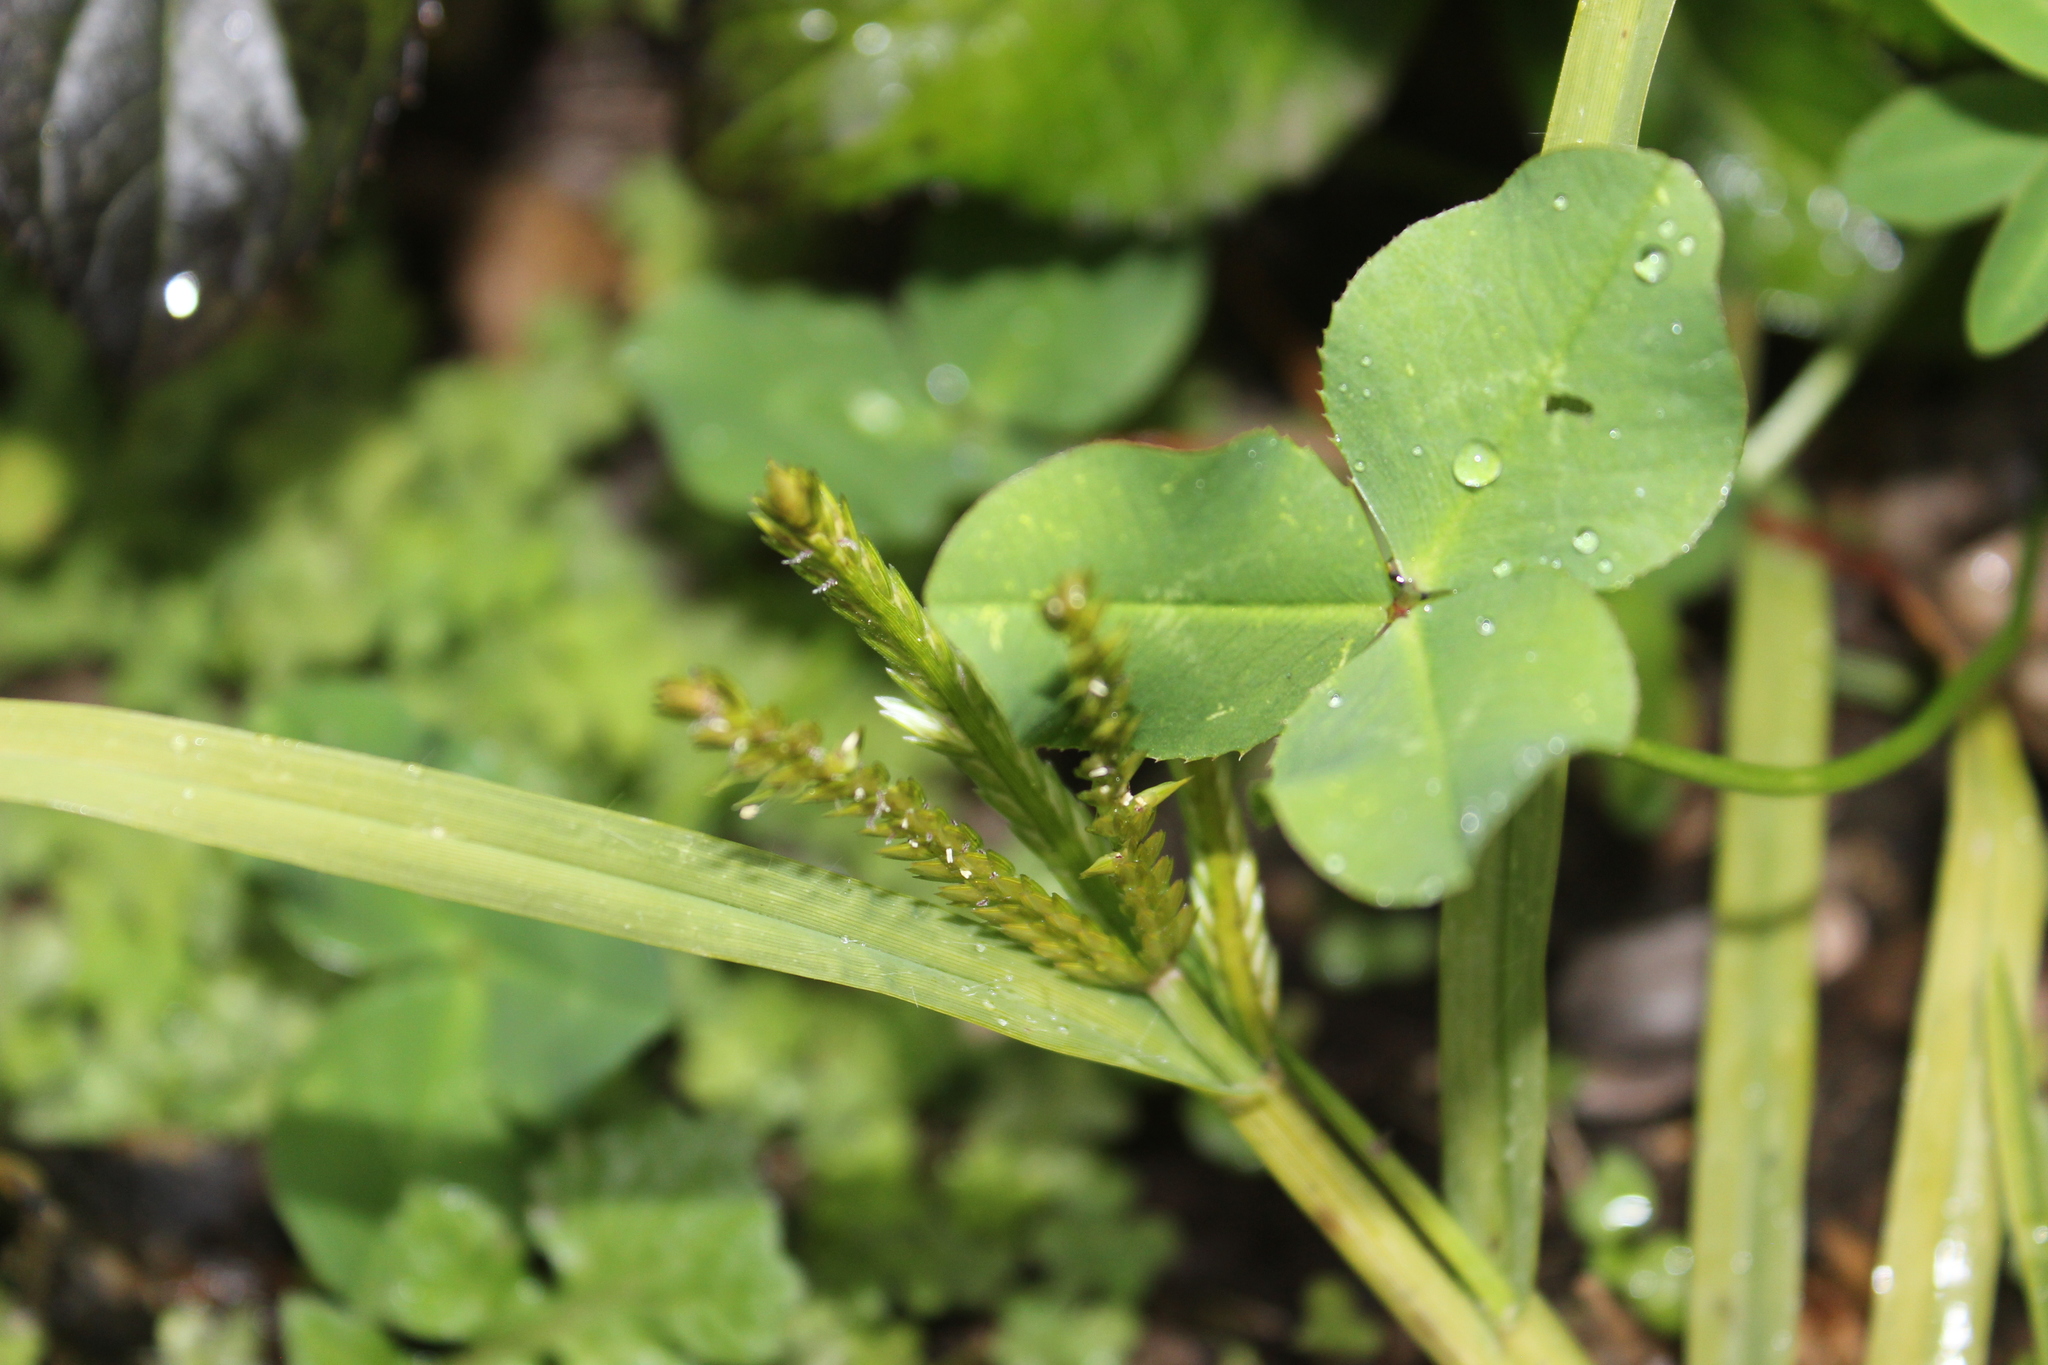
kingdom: Plantae
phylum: Tracheophyta
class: Liliopsida
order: Poales
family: Poaceae
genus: Eleusine
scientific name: Eleusine indica
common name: Yard-grass
